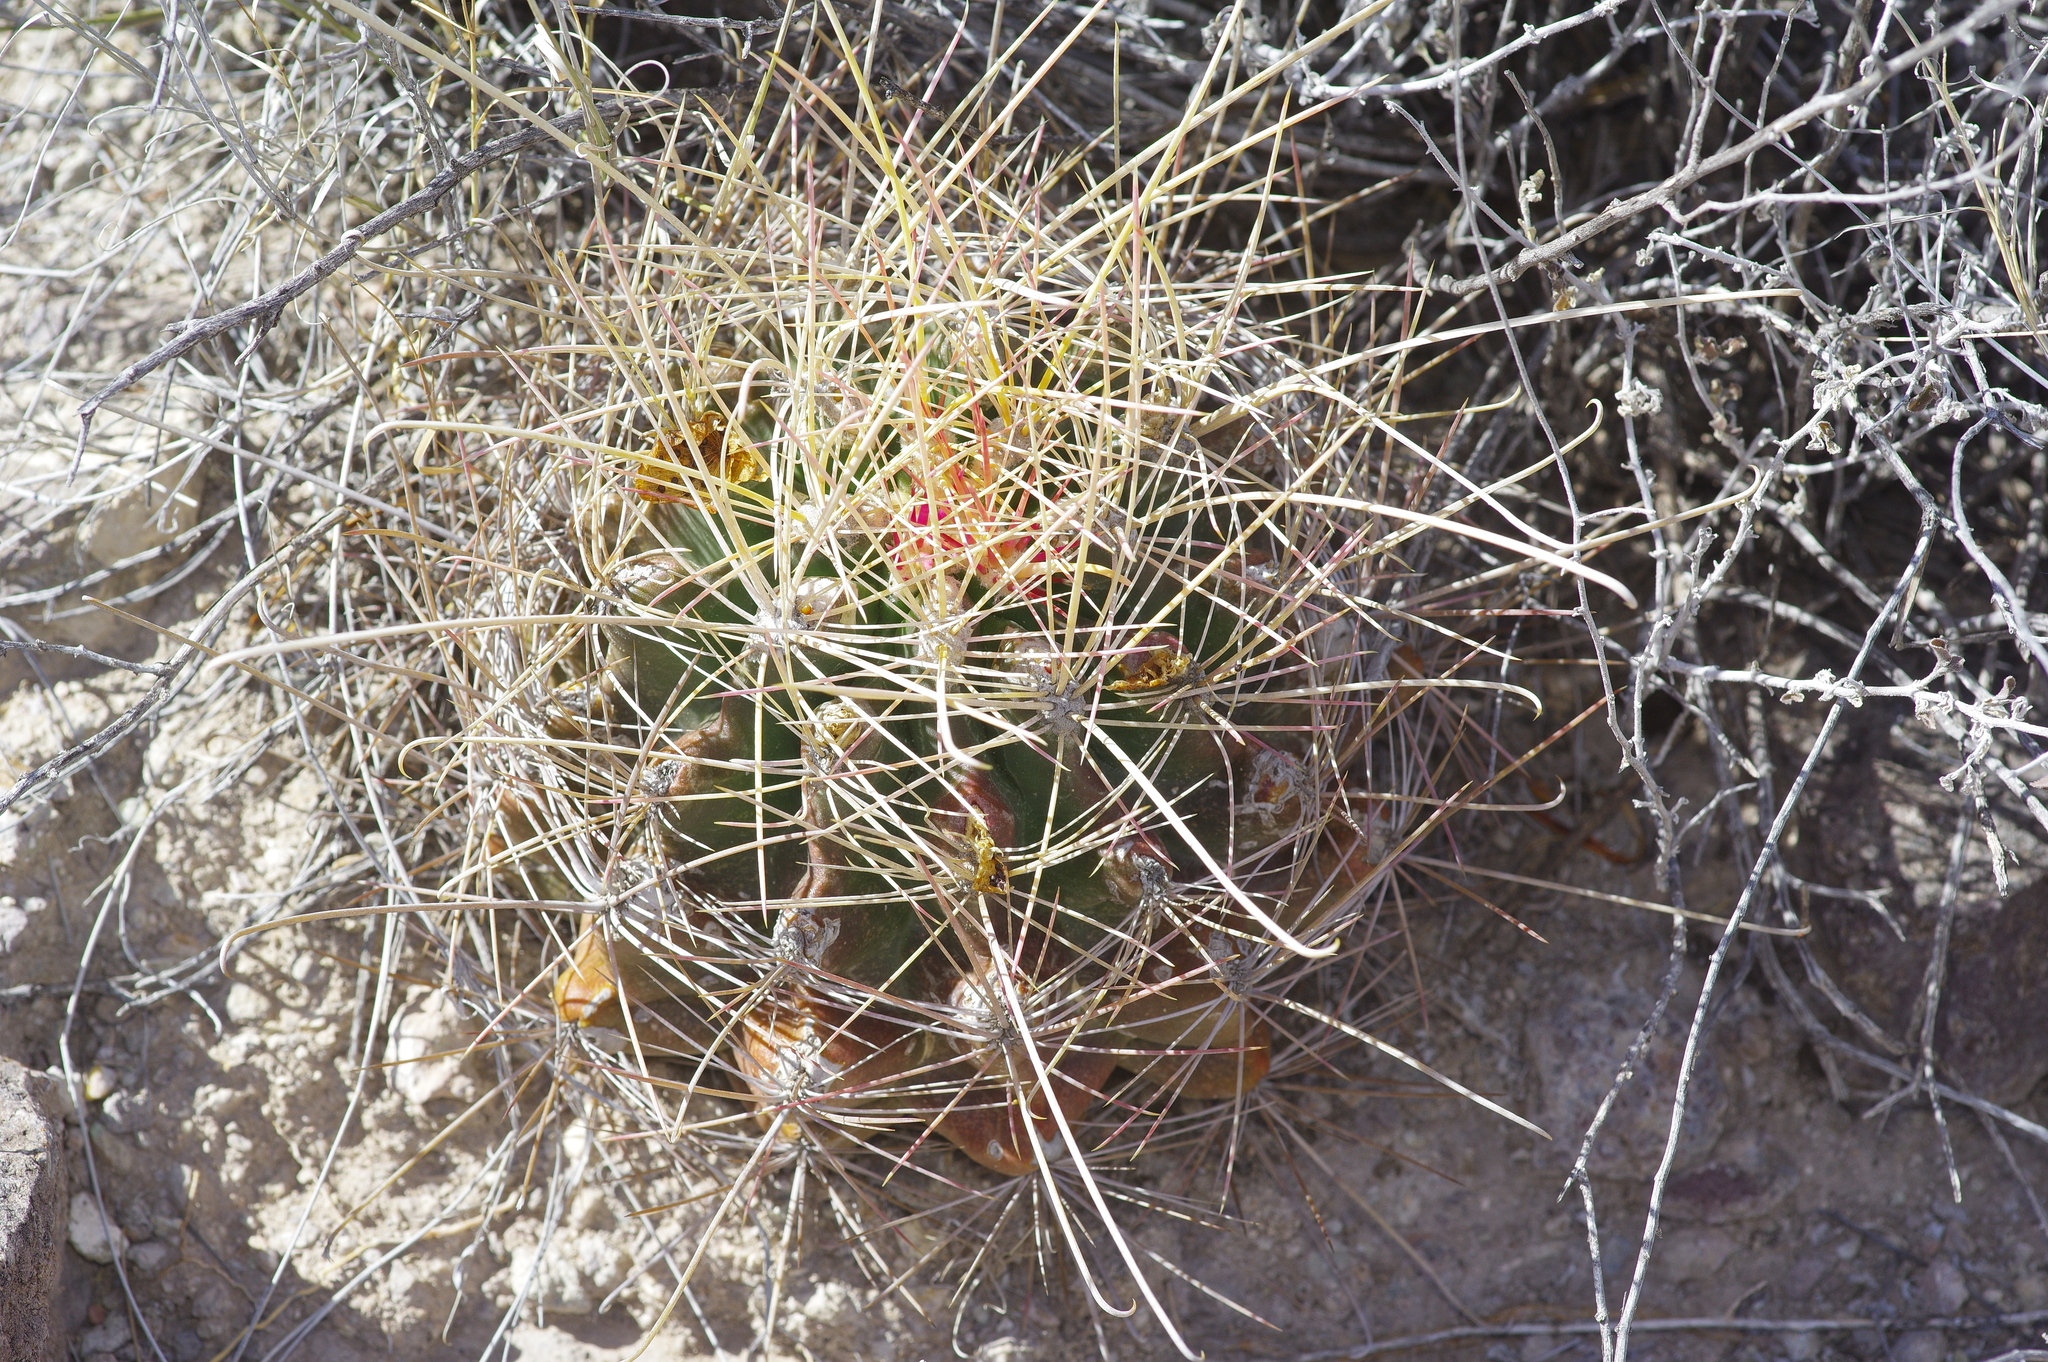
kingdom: Plantae
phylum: Tracheophyta
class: Magnoliopsida
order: Caryophyllales
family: Cactaceae
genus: Bisnaga
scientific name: Bisnaga hamatacantha
